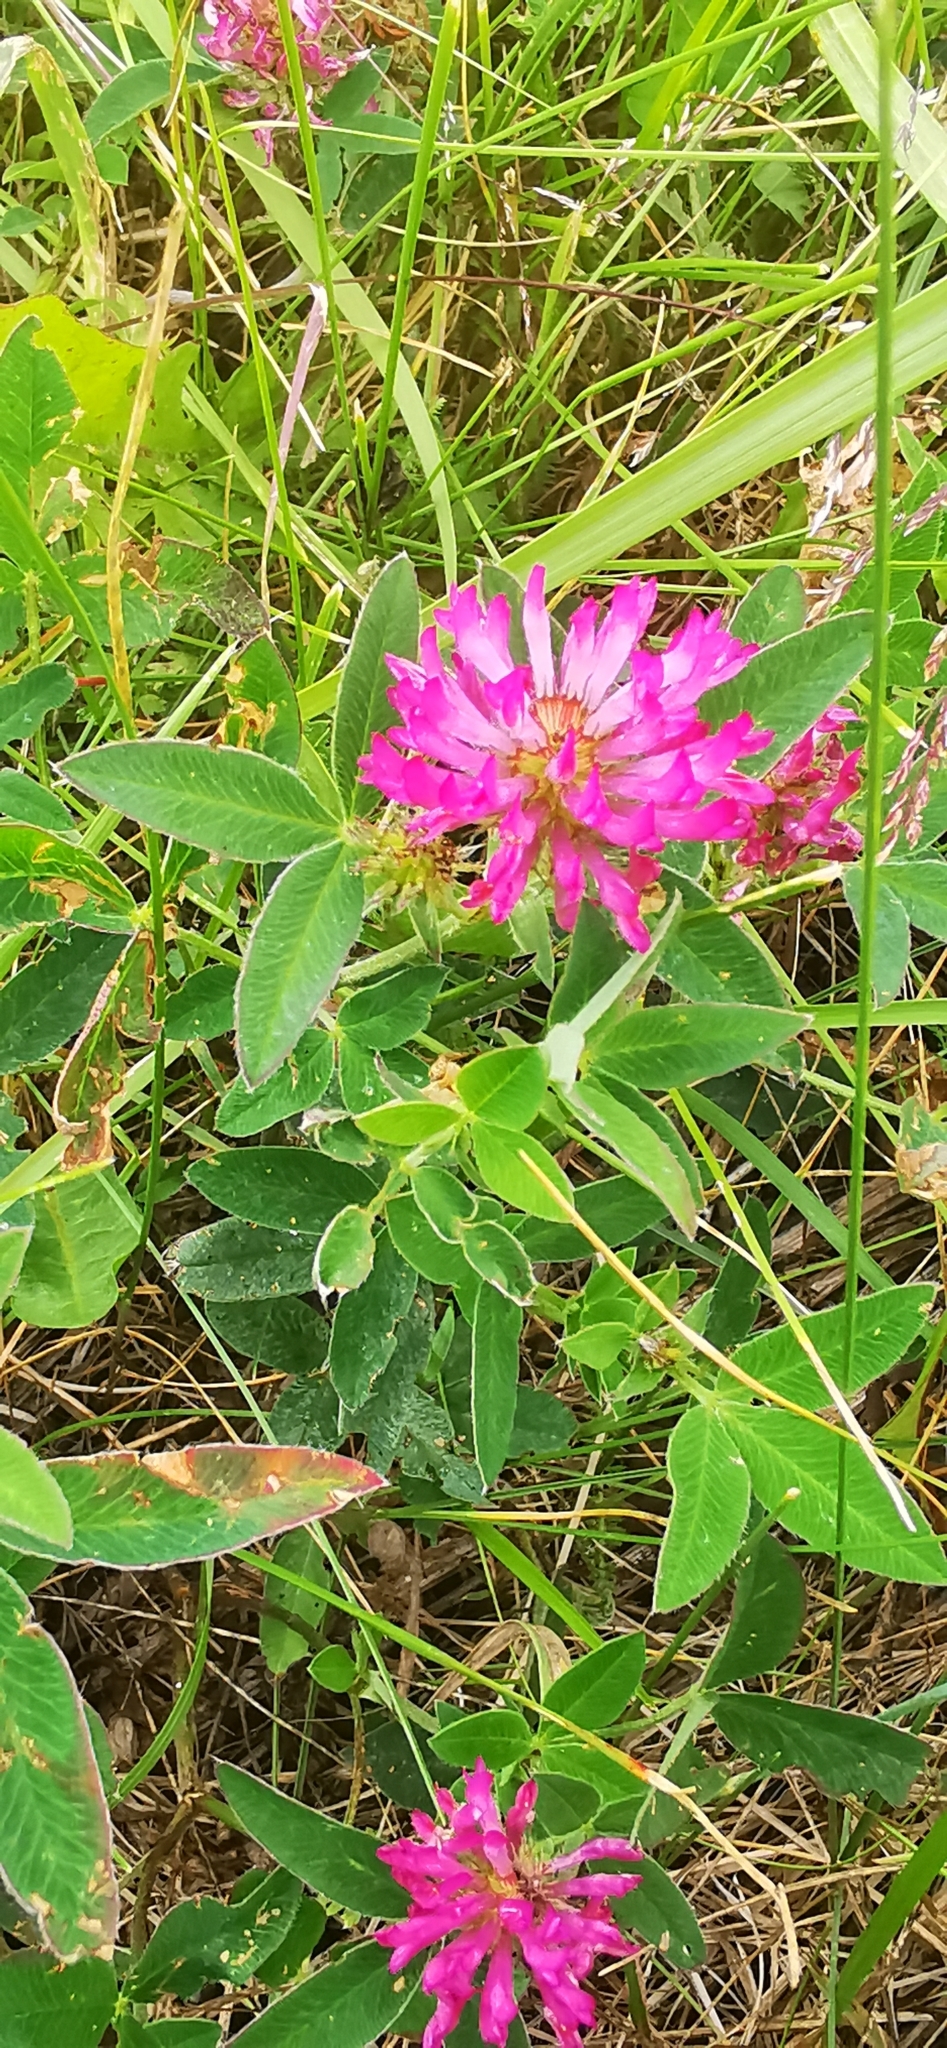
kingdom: Plantae
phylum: Tracheophyta
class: Magnoliopsida
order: Fabales
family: Fabaceae
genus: Trifolium
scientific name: Trifolium medium
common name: Zigzag clover
